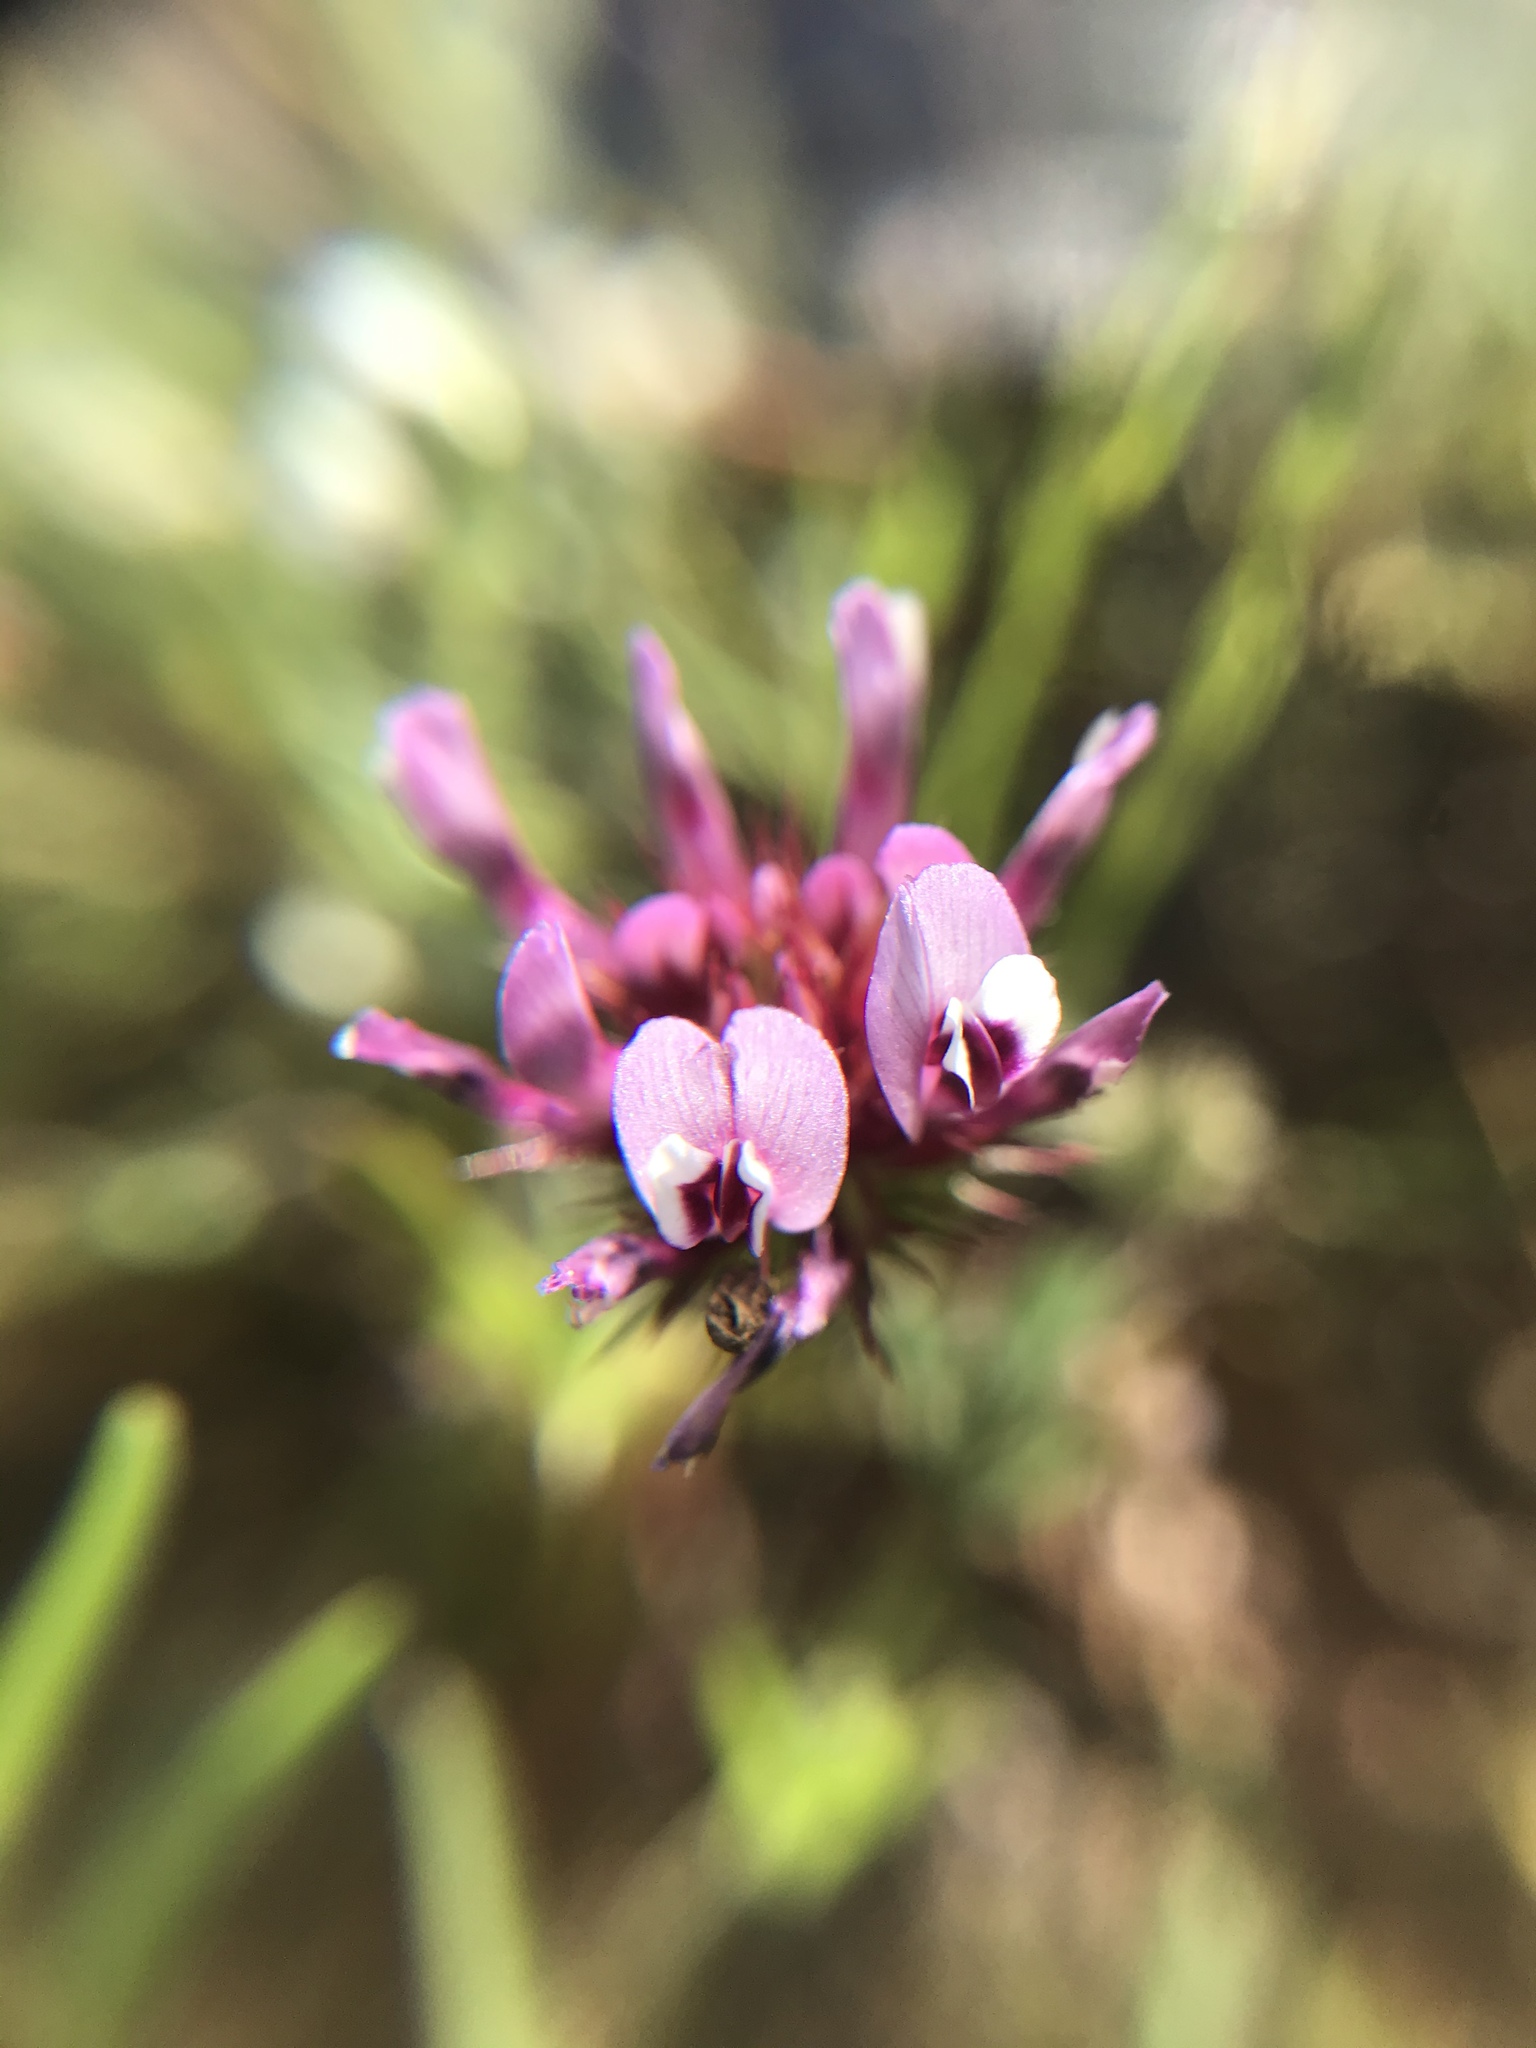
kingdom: Plantae
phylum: Tracheophyta
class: Magnoliopsida
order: Fabales
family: Fabaceae
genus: Trifolium
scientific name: Trifolium willdenovii
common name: Tomcat clover
